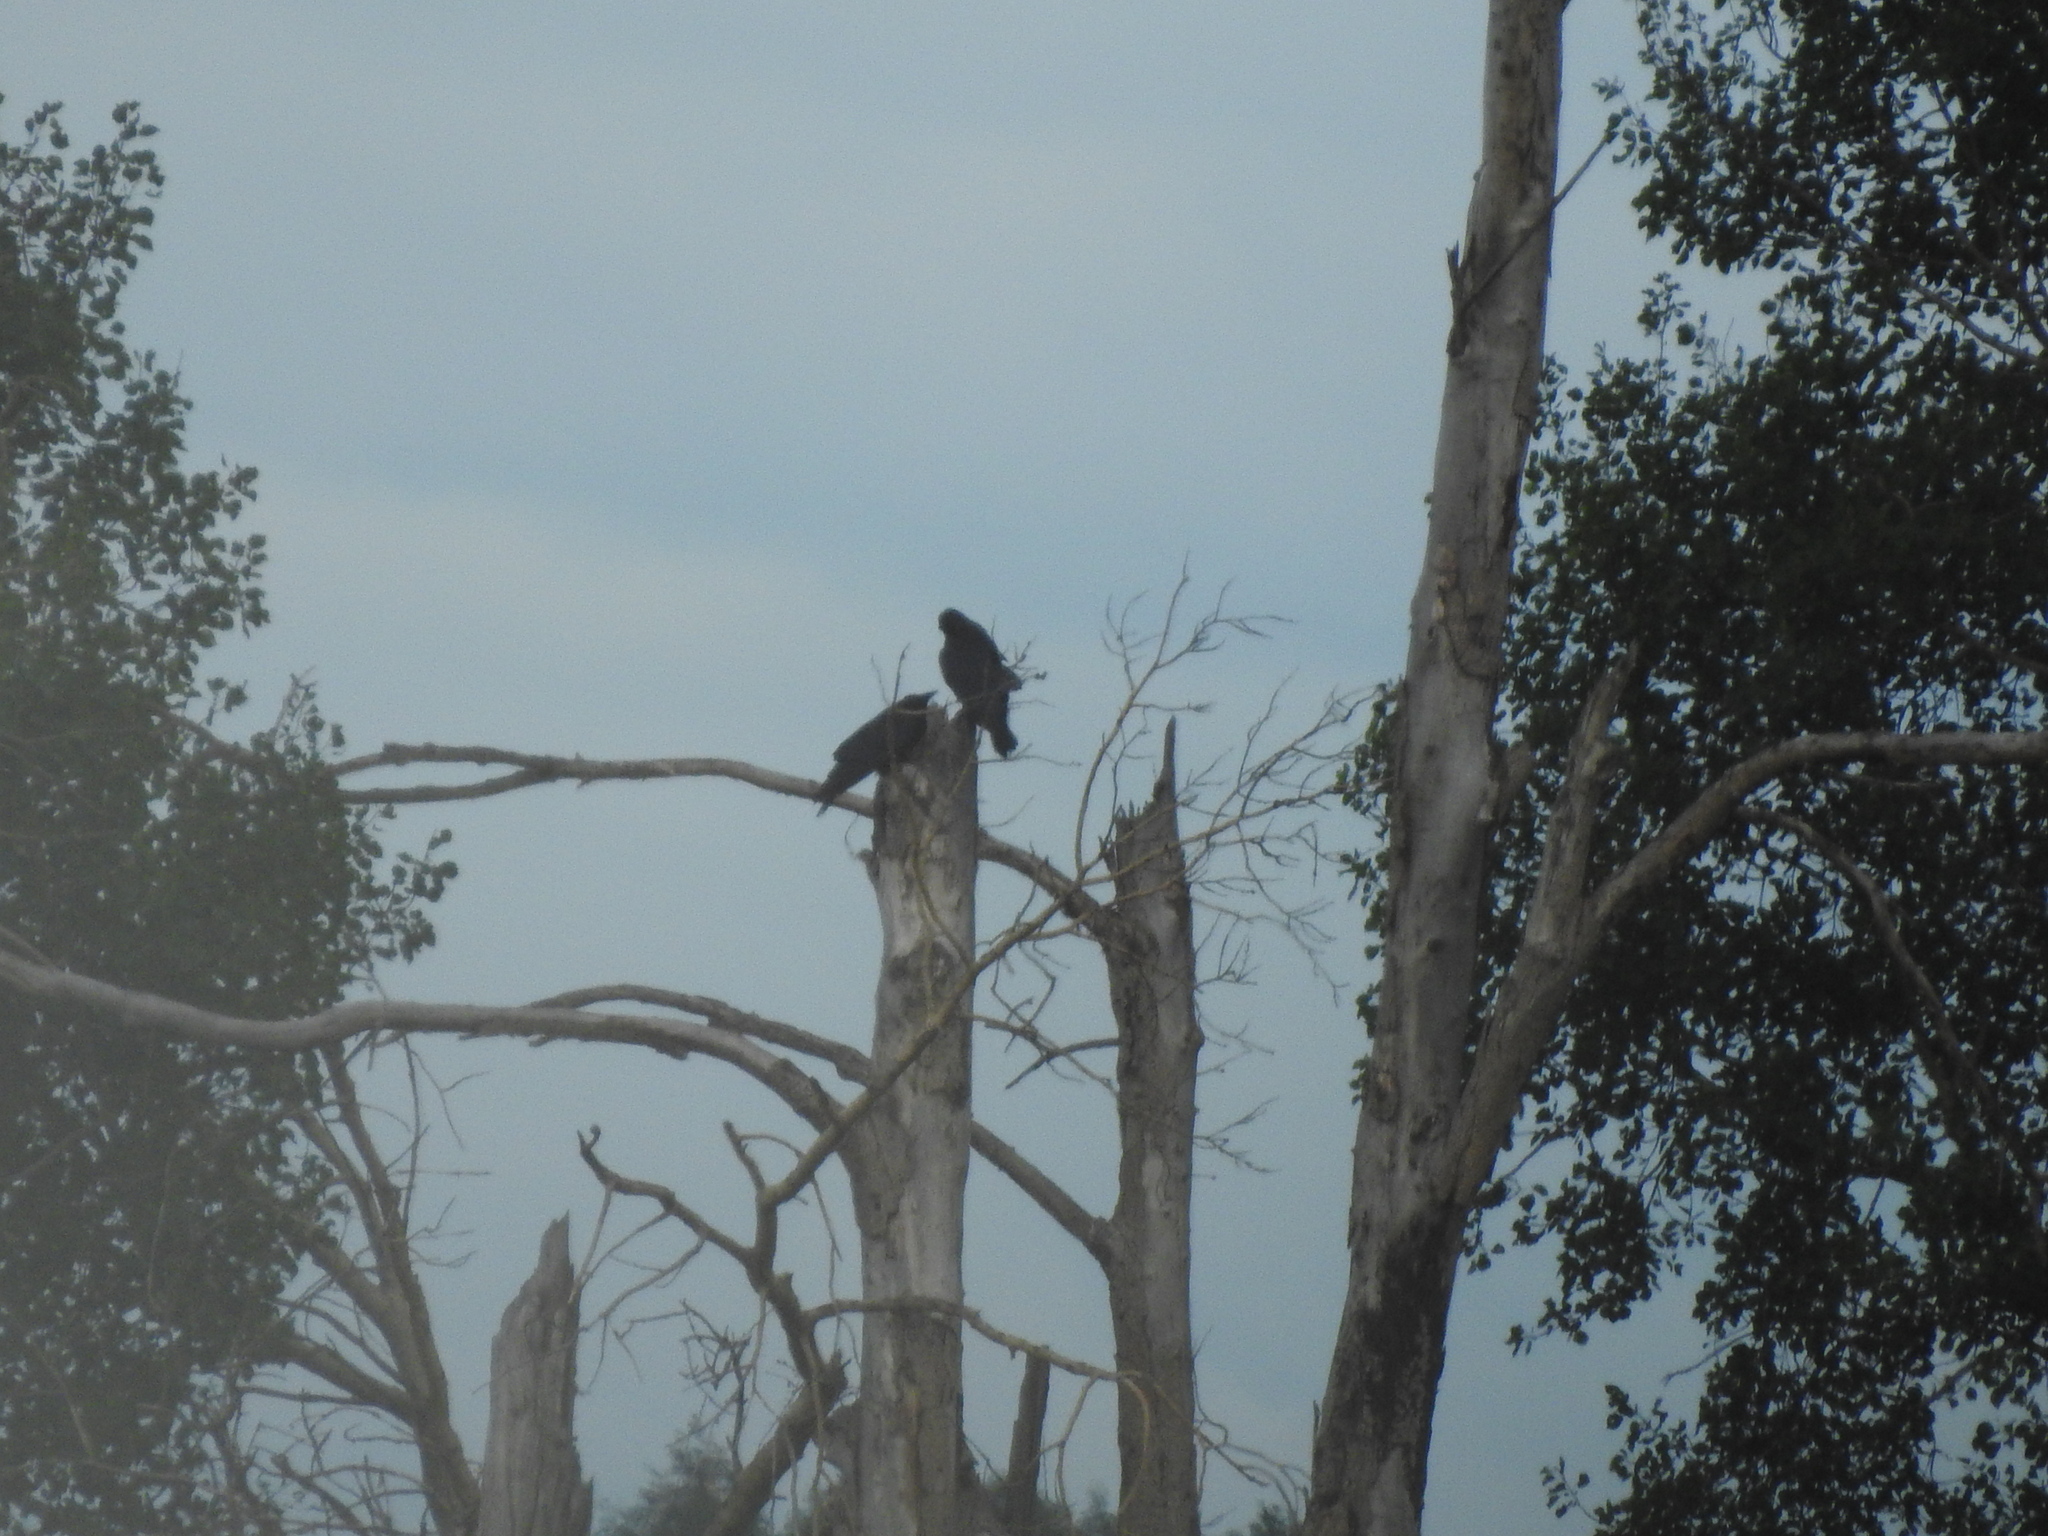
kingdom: Animalia
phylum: Chordata
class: Aves
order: Passeriformes
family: Corvidae
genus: Corvus
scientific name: Corvus corax
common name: Common raven
